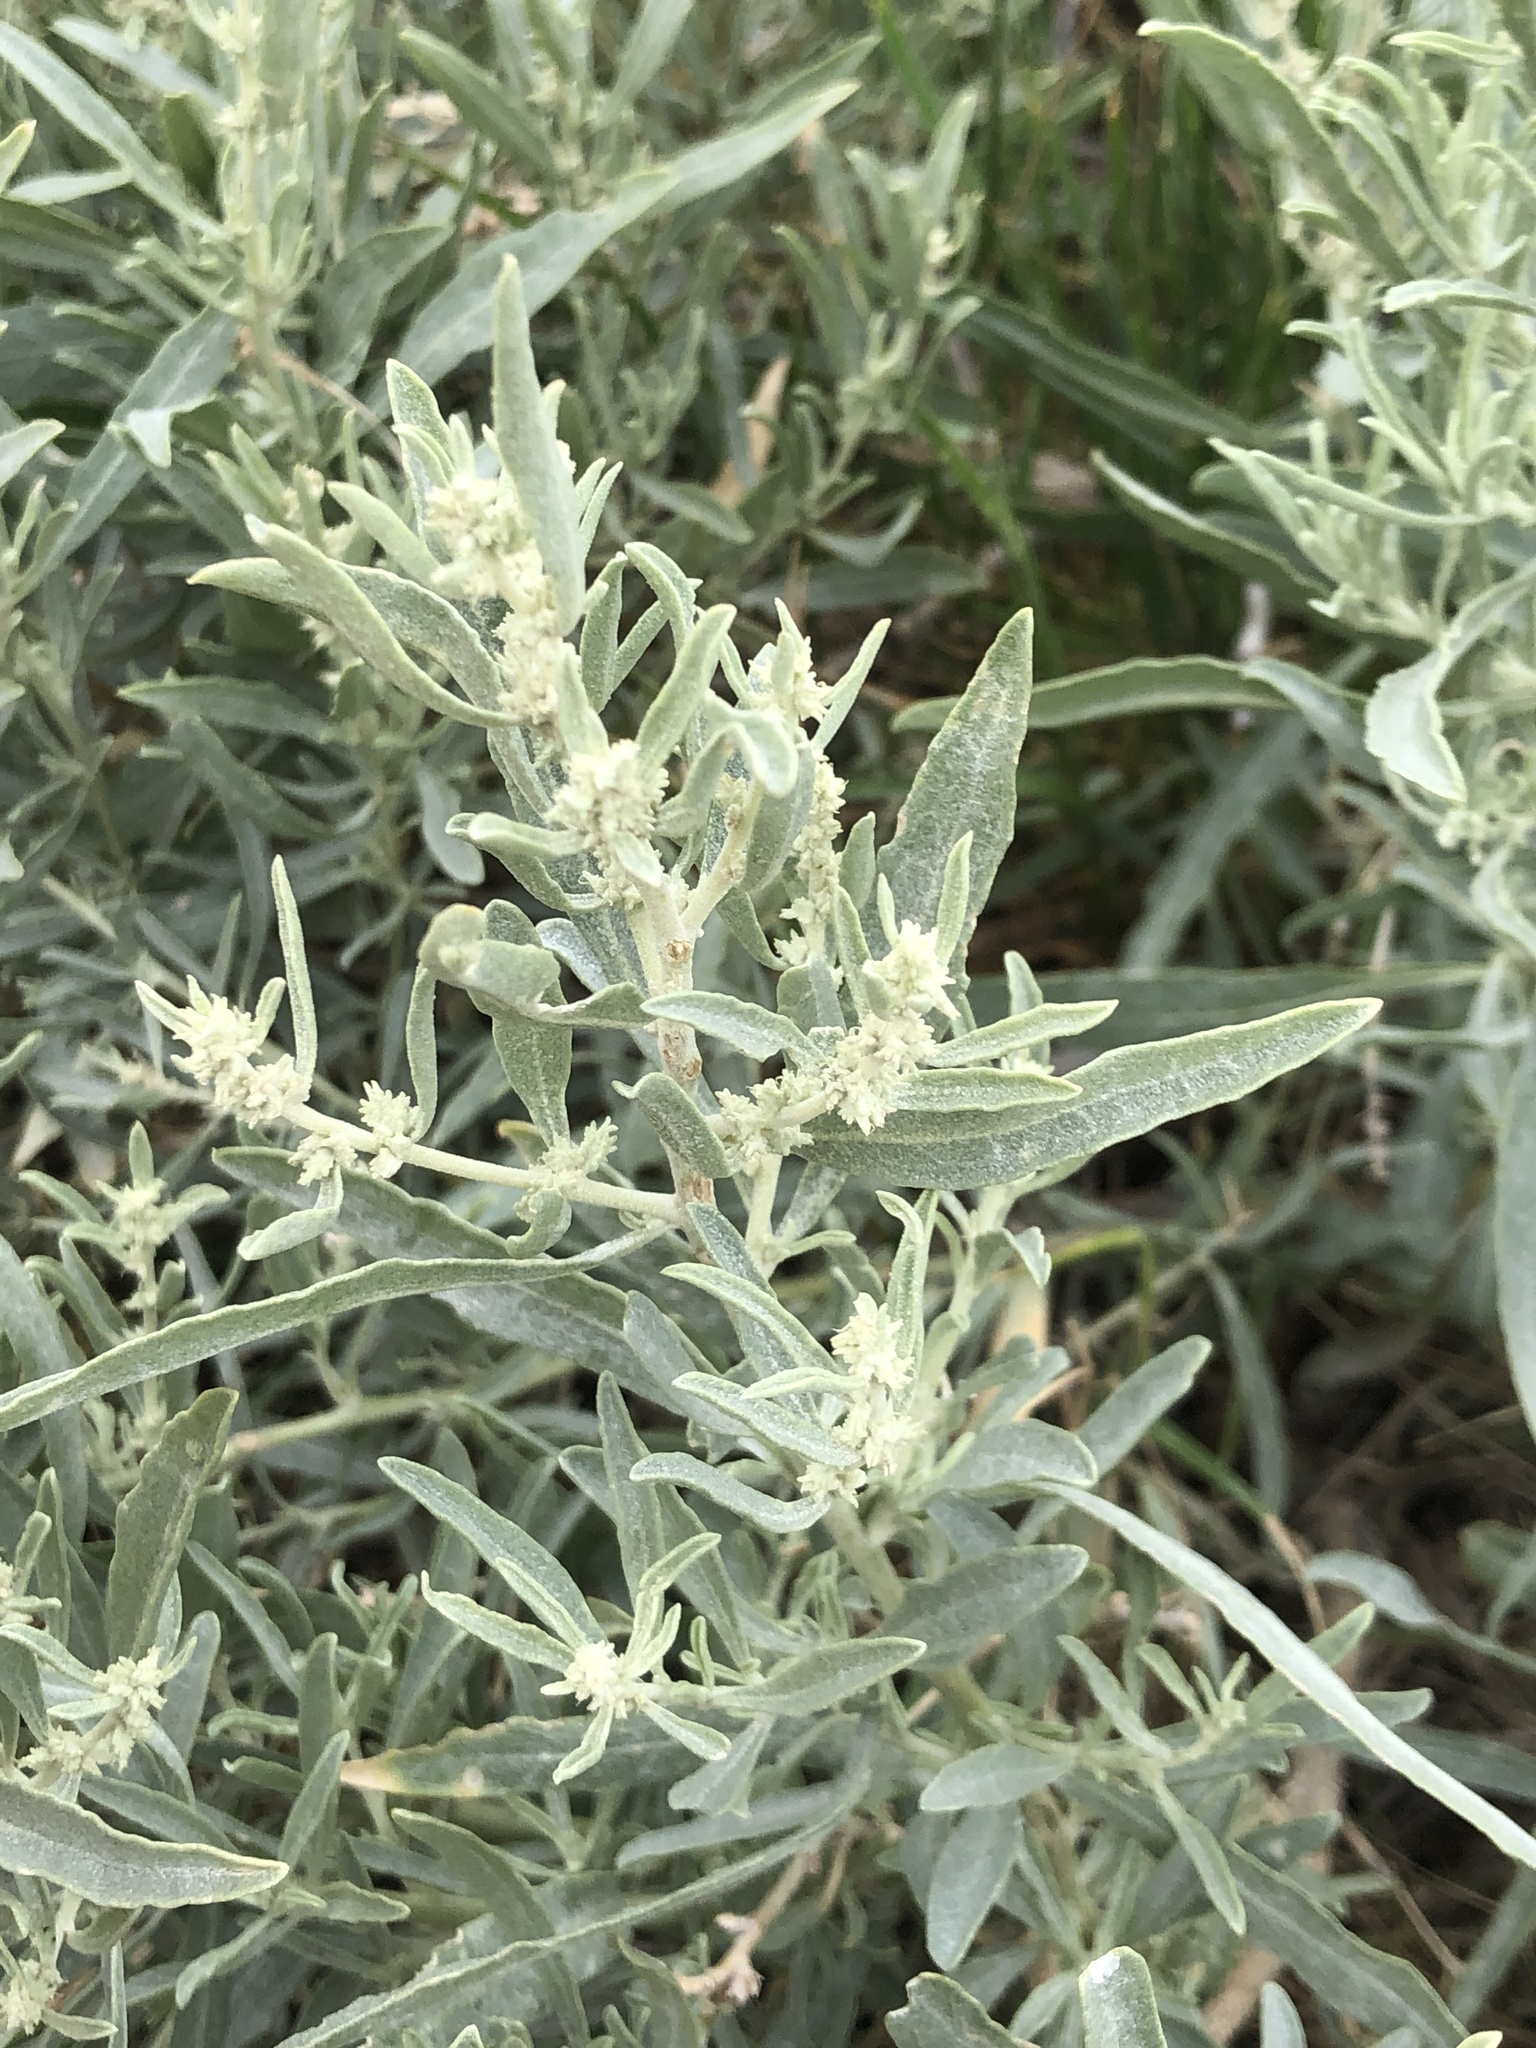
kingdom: Plantae
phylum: Tracheophyta
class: Magnoliopsida
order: Caryophyllales
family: Amaranthaceae
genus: Atriplex
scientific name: Atriplex canescens
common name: Four-wing saltbush
